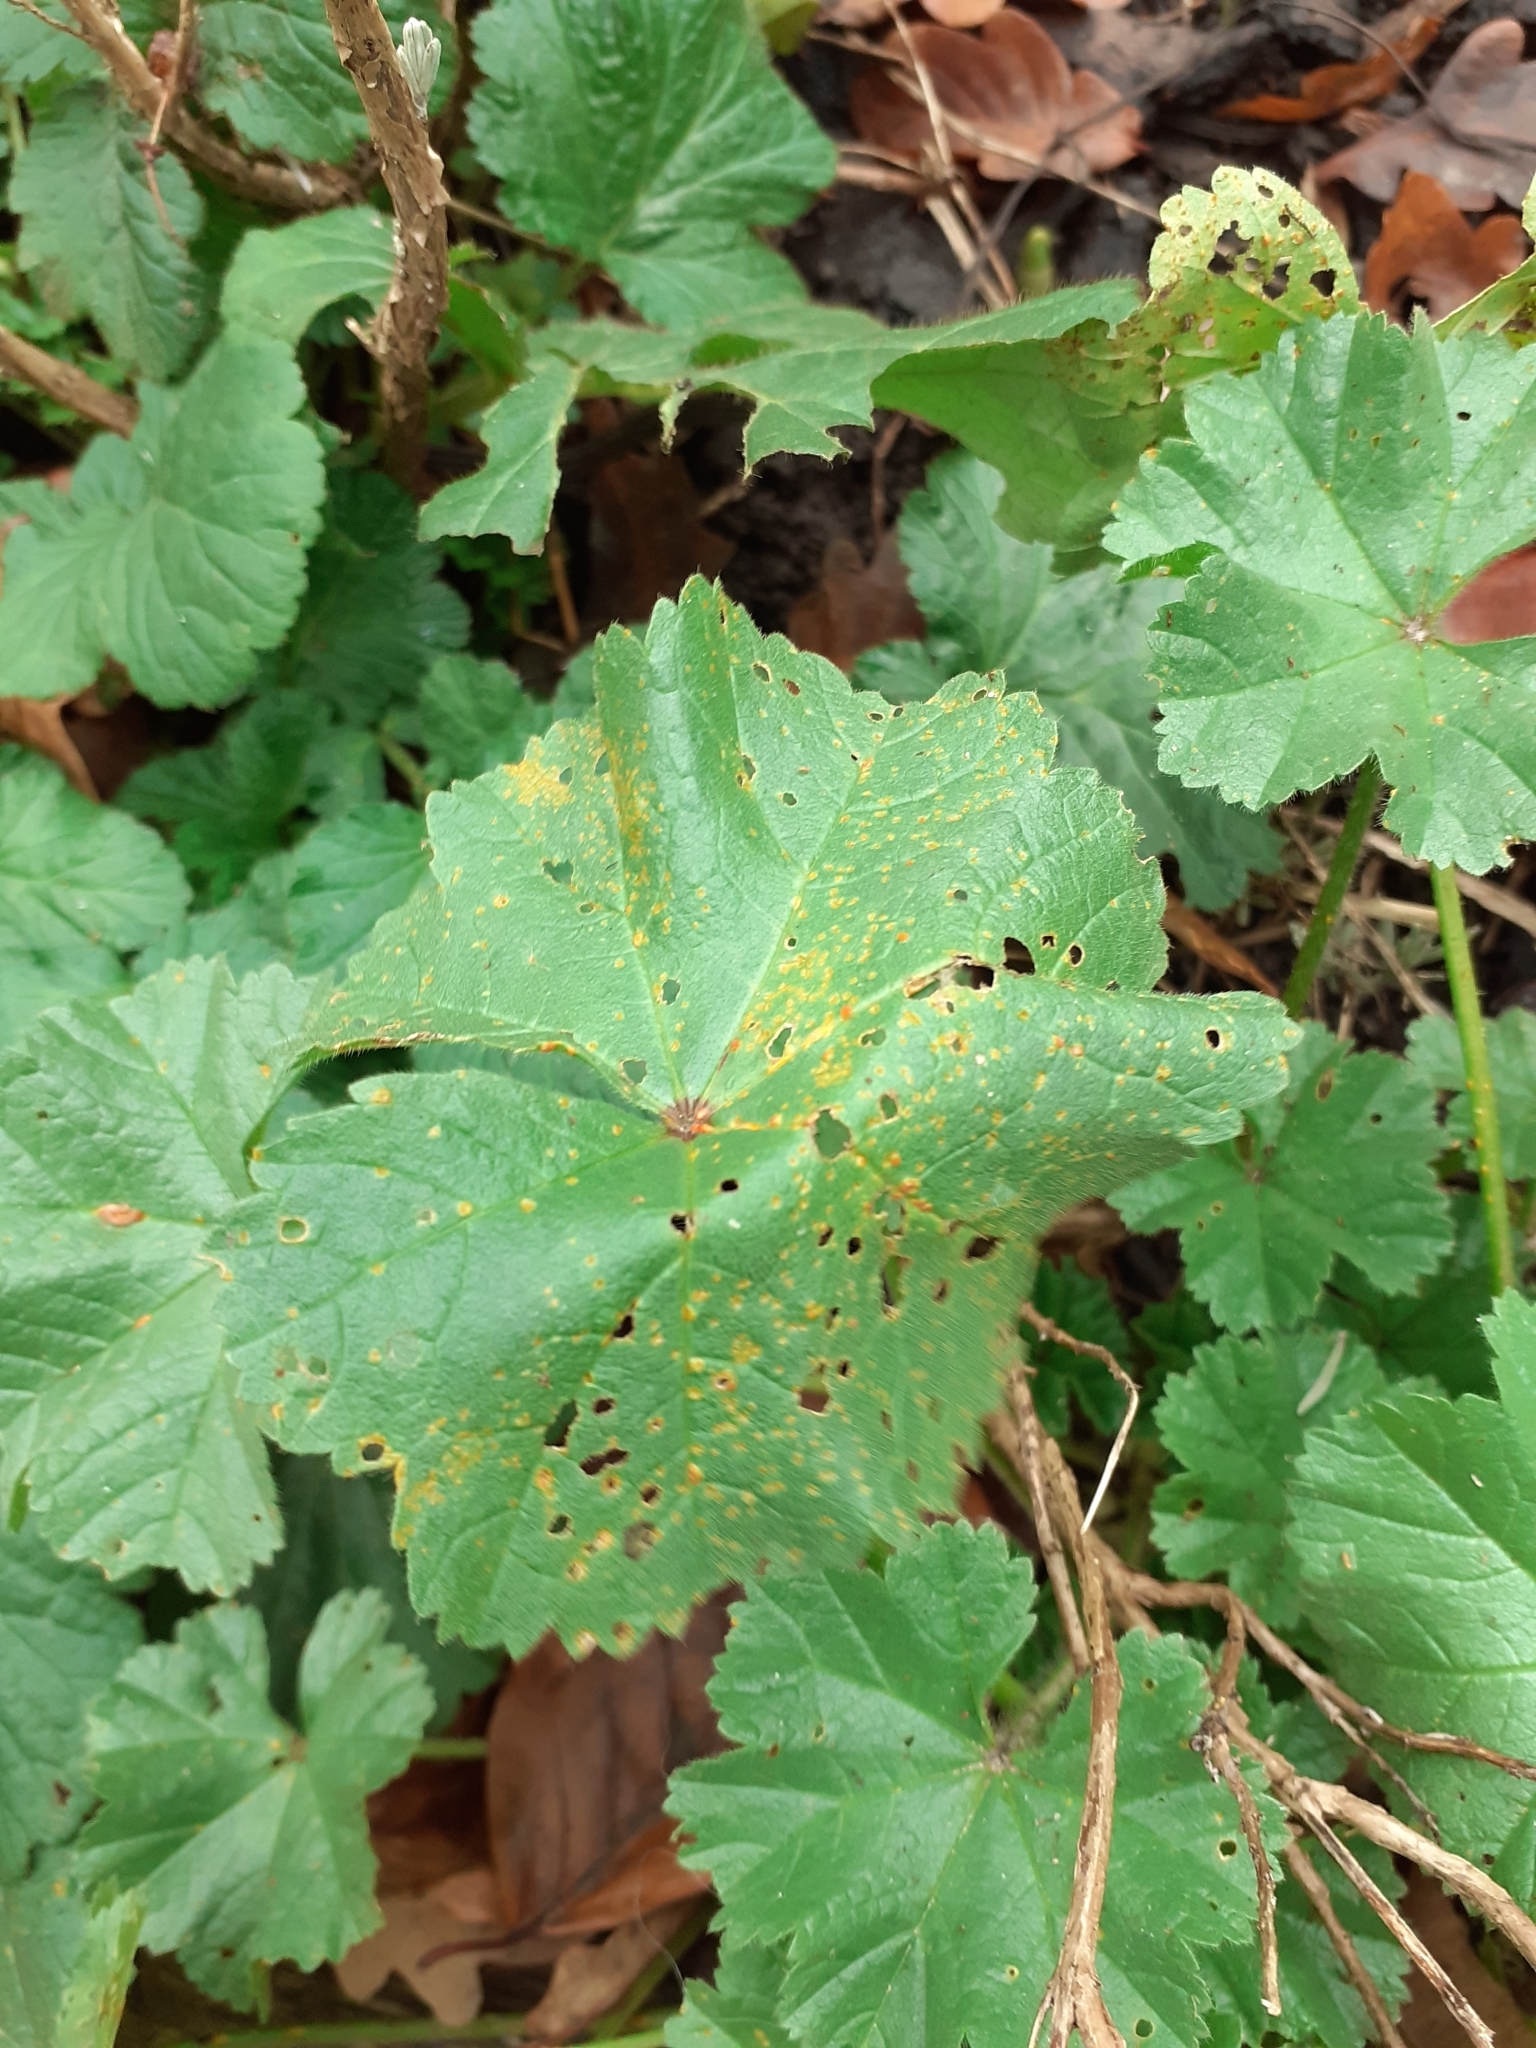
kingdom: Fungi
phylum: Basidiomycota
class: Pucciniomycetes
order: Pucciniales
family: Pucciniaceae
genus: Puccinia
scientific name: Puccinia malvacearum
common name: Hollyhock rust
